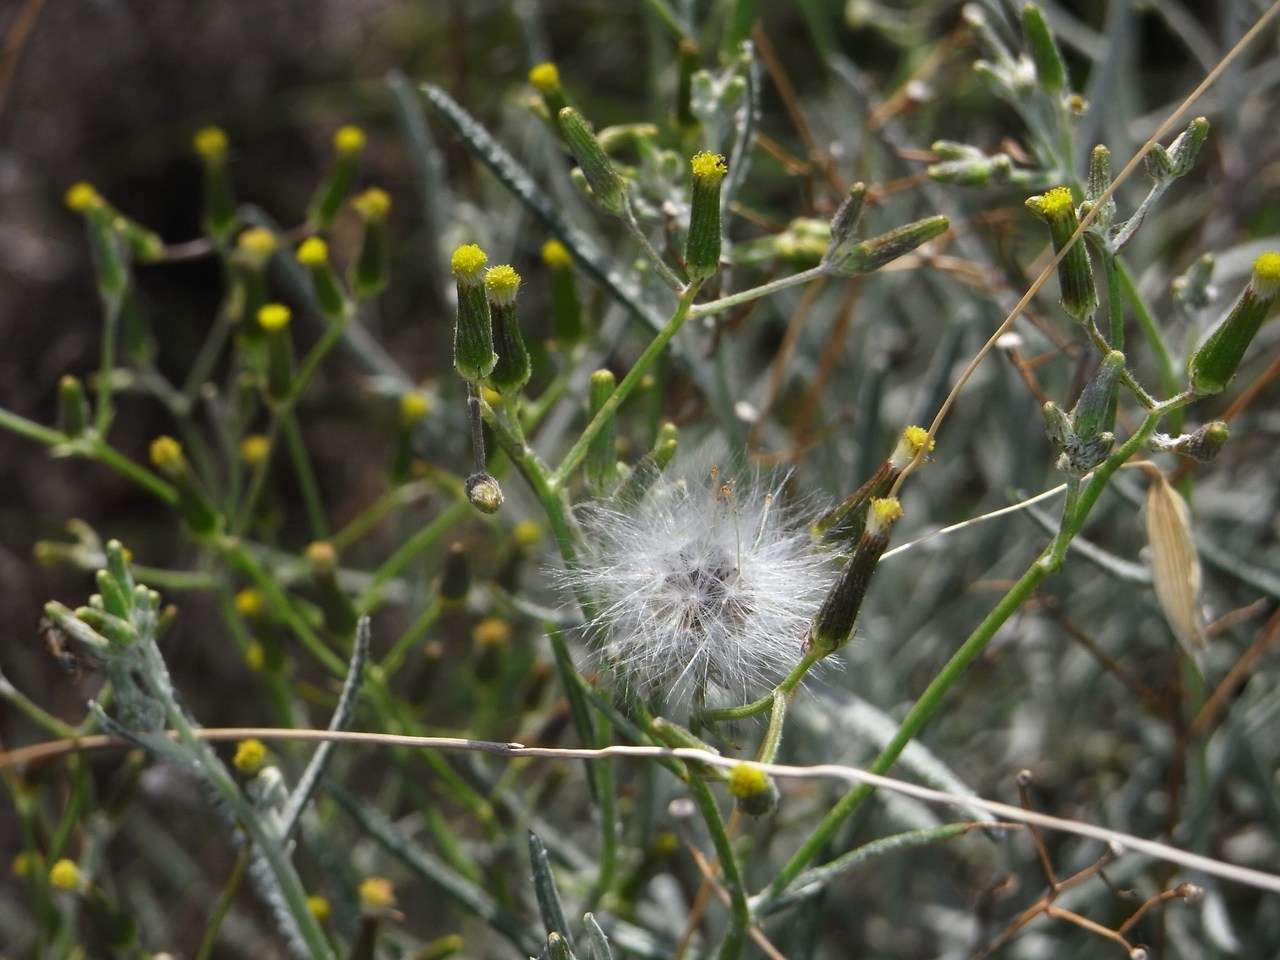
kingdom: Plantae
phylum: Tracheophyta
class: Magnoliopsida
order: Asterales
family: Asteraceae
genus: Senecio
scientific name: Senecio quadridentatus
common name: Cotton fireweed
